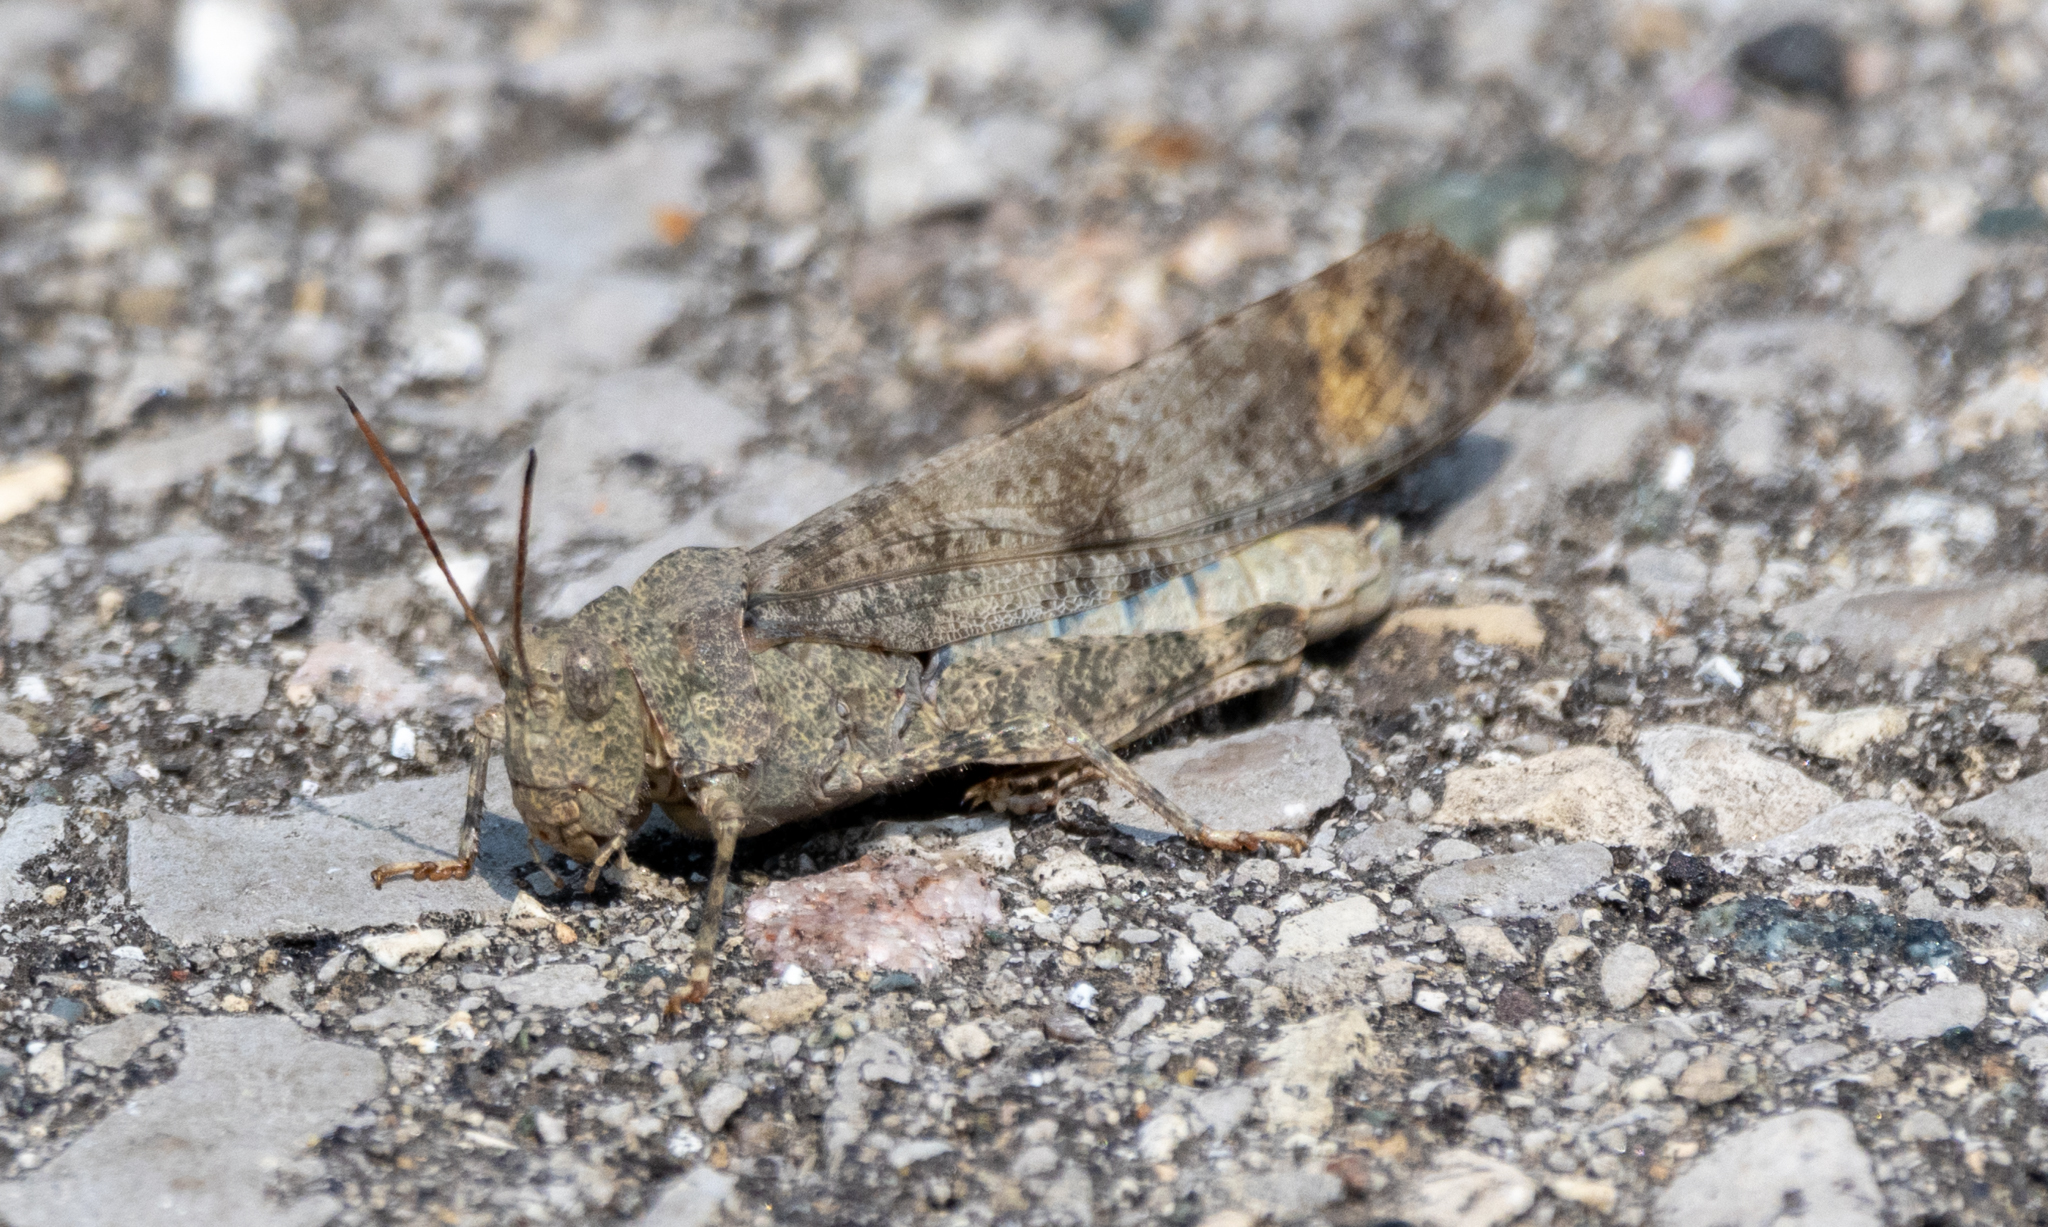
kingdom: Animalia
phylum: Arthropoda
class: Insecta
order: Orthoptera
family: Acrididae
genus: Dissosteira
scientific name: Dissosteira carolina
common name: Carolina grasshopper
